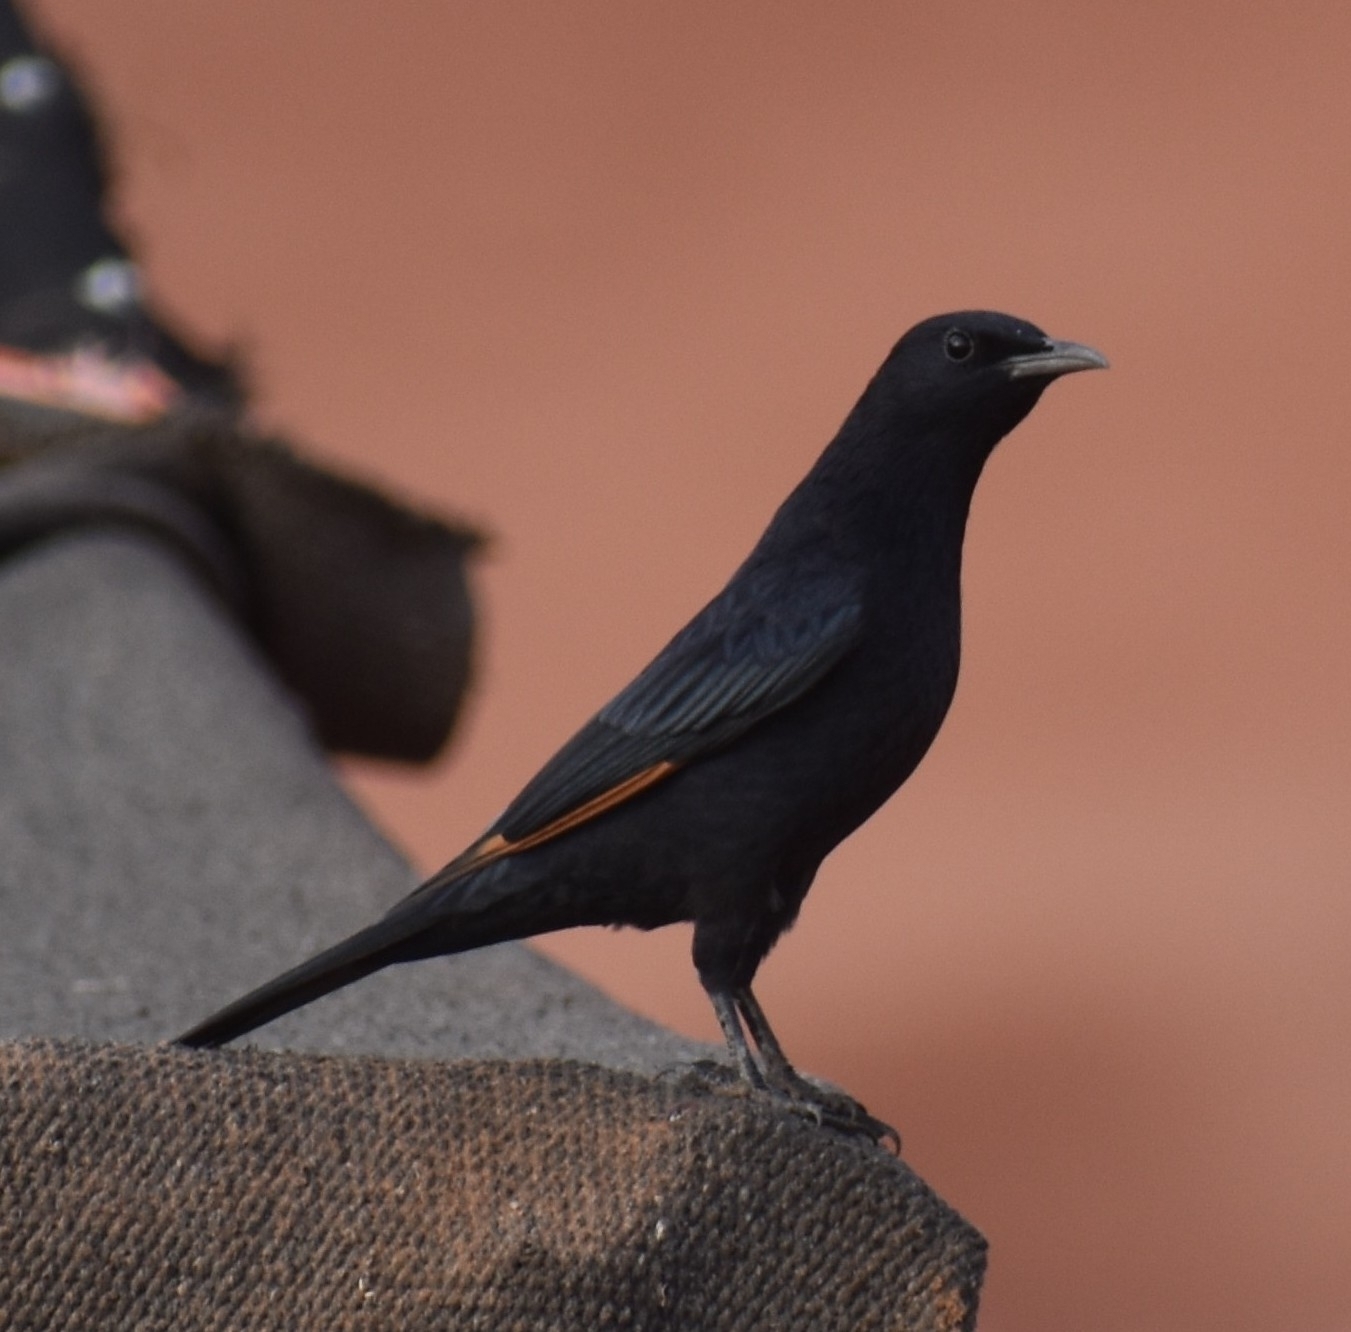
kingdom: Animalia
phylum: Chordata
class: Aves
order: Passeriformes
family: Sturnidae
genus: Onychognathus
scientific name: Onychognathus tristramii
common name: Tristram's starling
